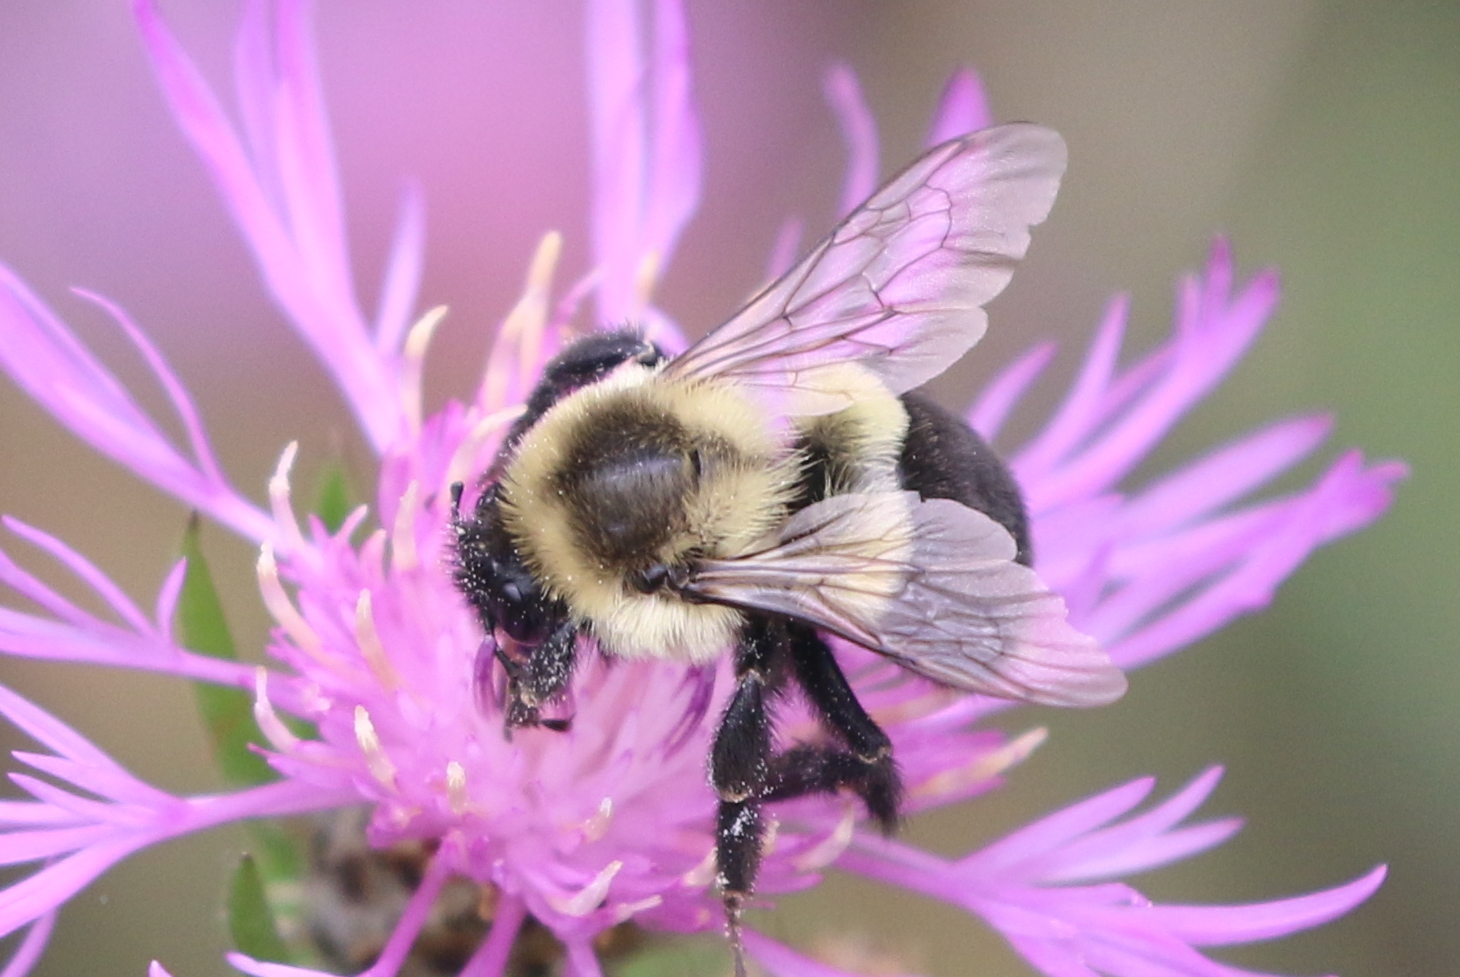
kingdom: Animalia
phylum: Arthropoda
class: Insecta
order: Hymenoptera
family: Apidae
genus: Bombus
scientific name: Bombus impatiens
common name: Common eastern bumble bee
